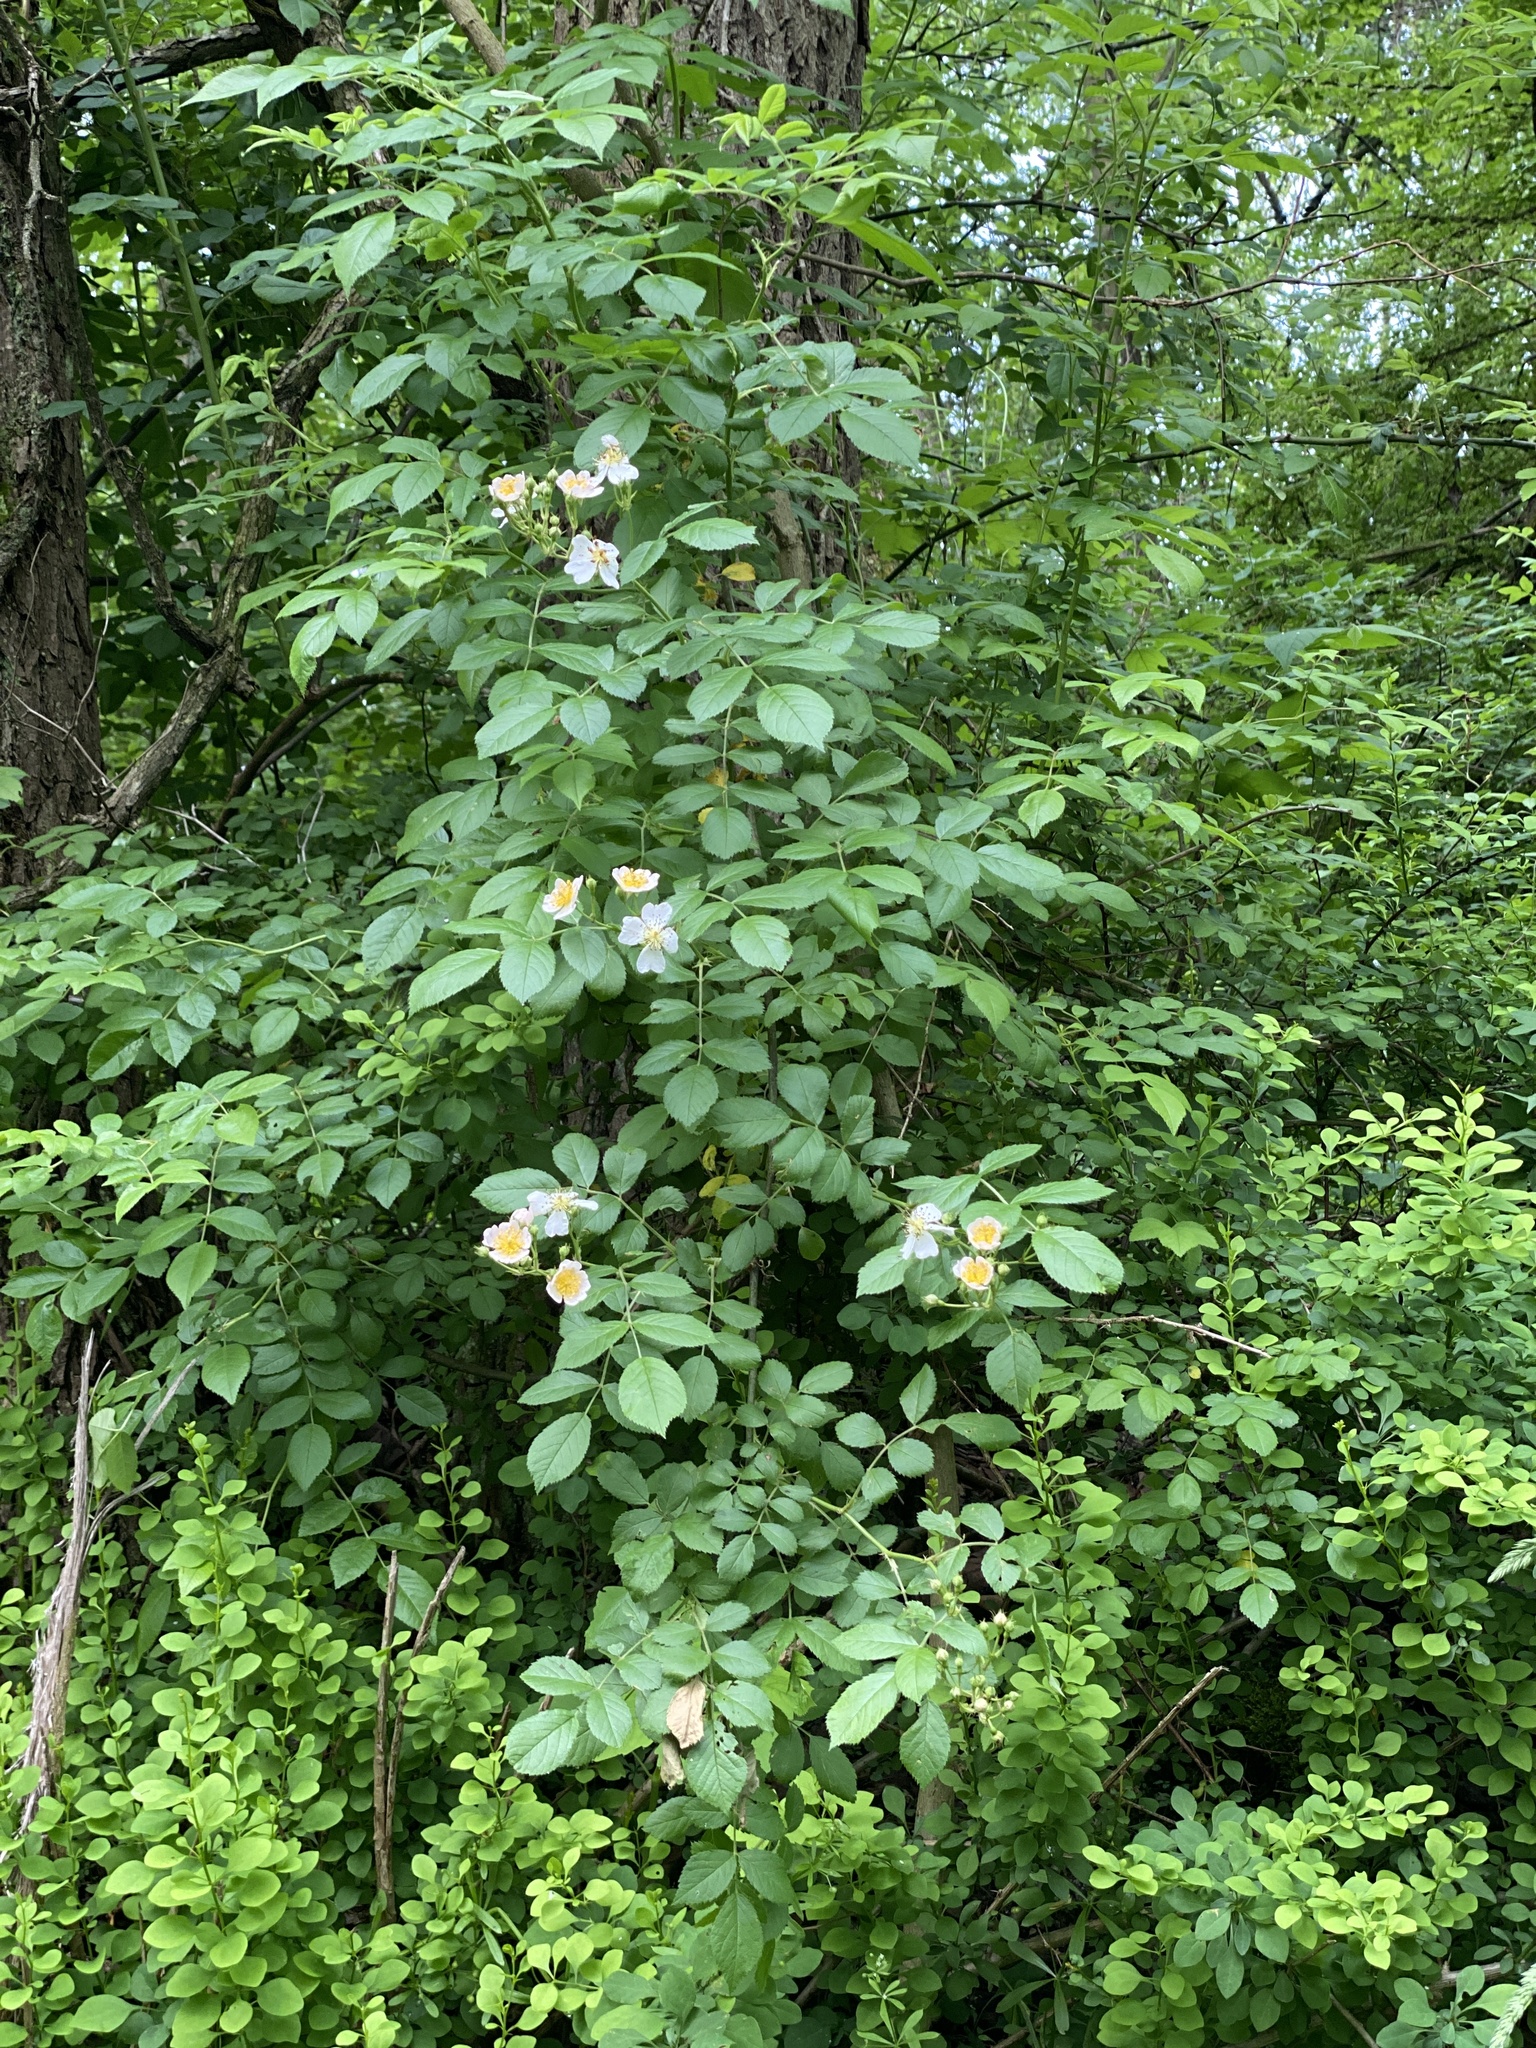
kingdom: Plantae
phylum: Tracheophyta
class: Magnoliopsida
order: Rosales
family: Rosaceae
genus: Rosa
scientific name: Rosa multiflora
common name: Multiflora rose
